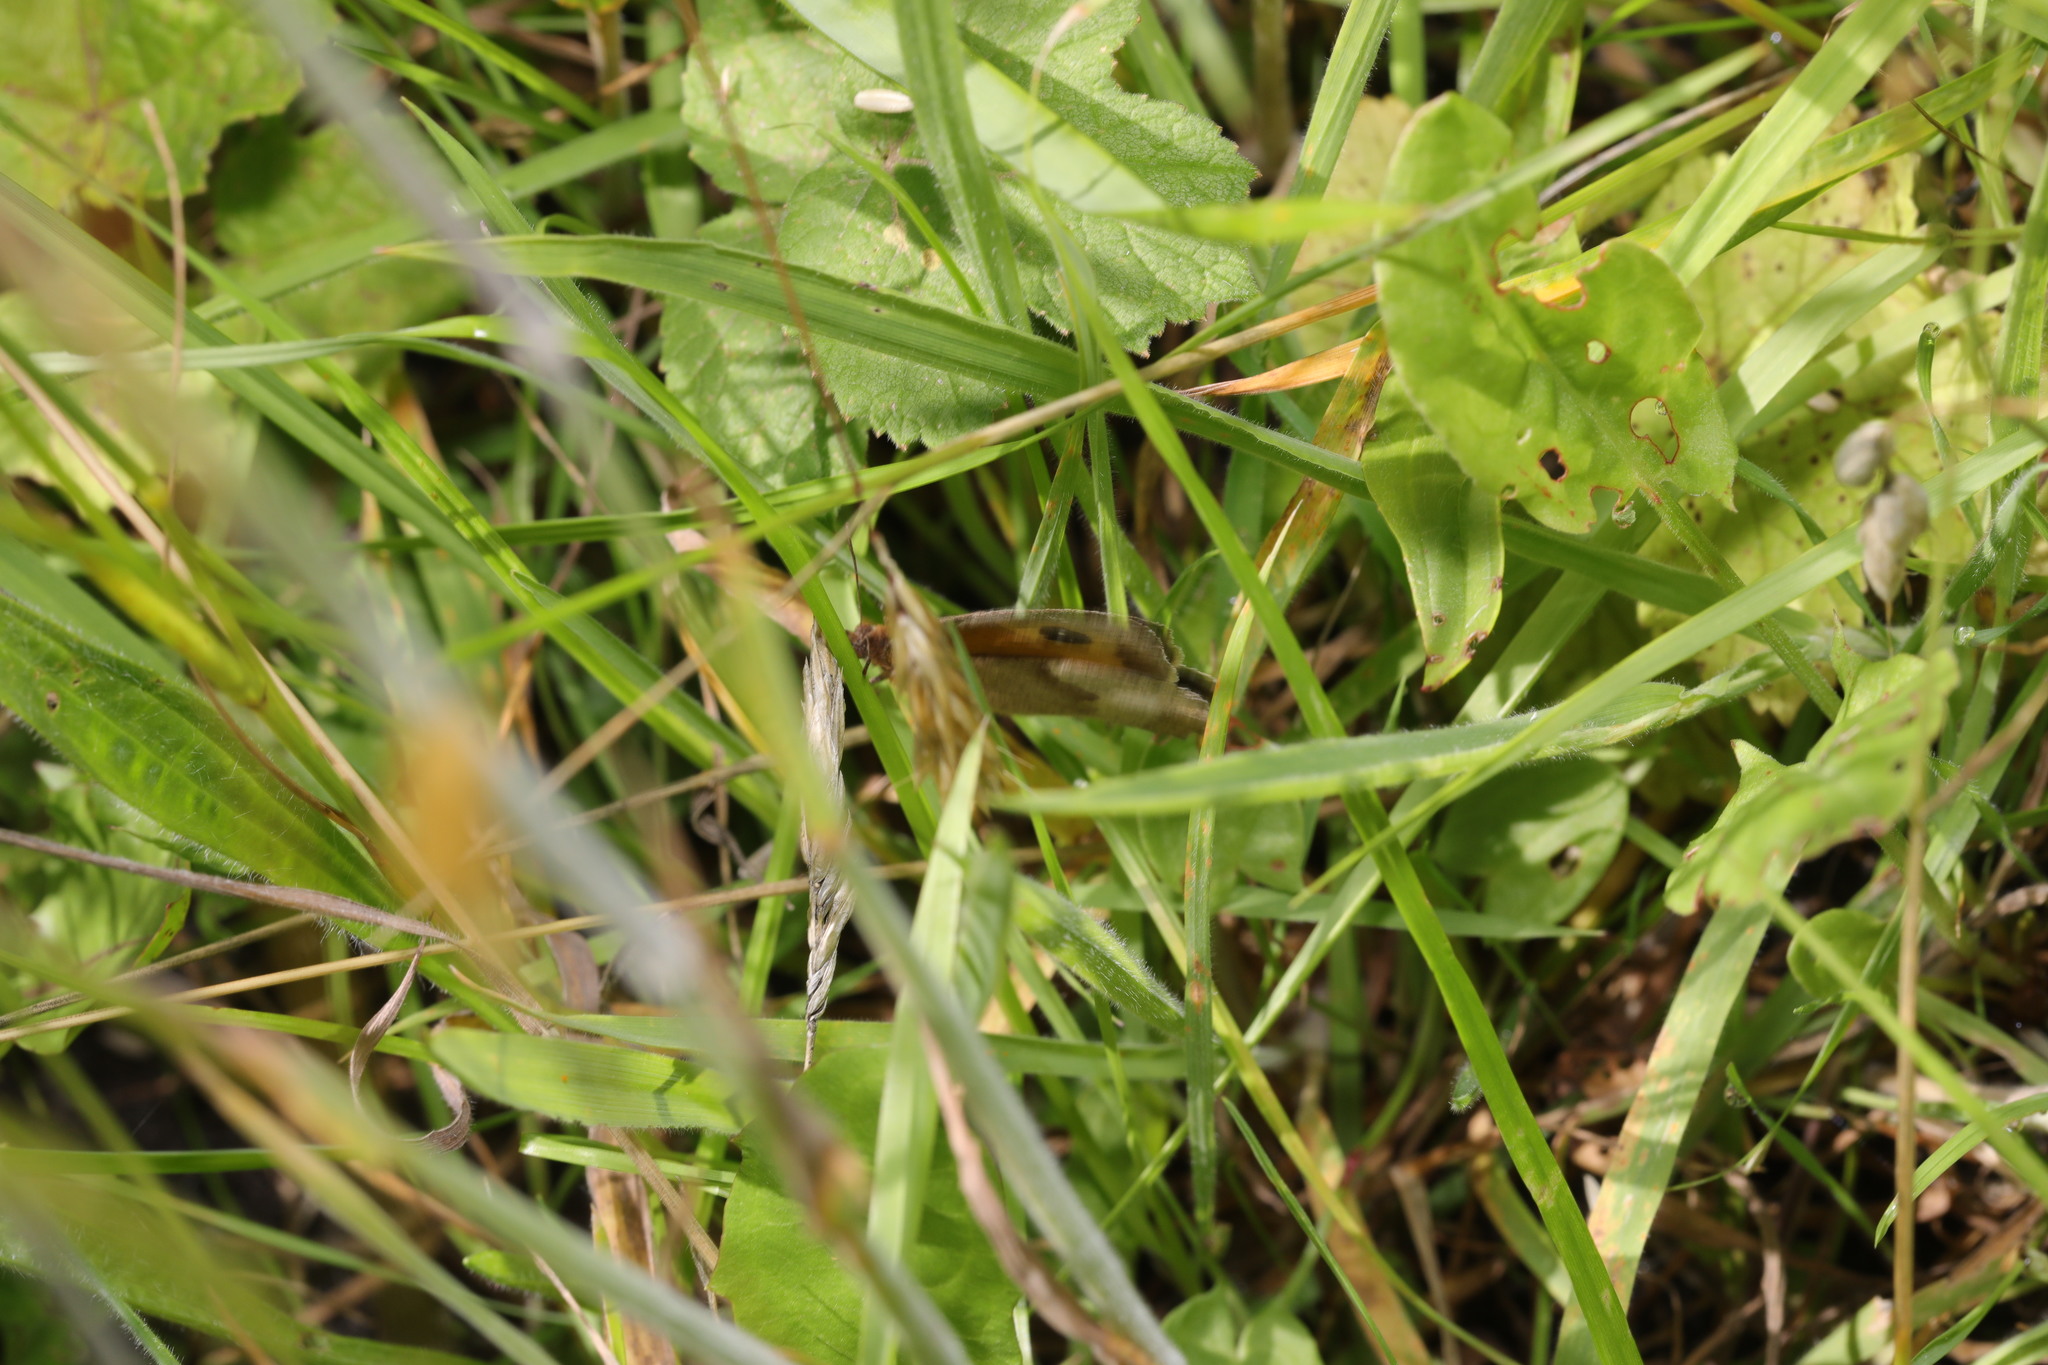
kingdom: Animalia
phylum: Arthropoda
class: Insecta
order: Lepidoptera
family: Nymphalidae
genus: Maniola
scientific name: Maniola jurtina
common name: Meadow brown
